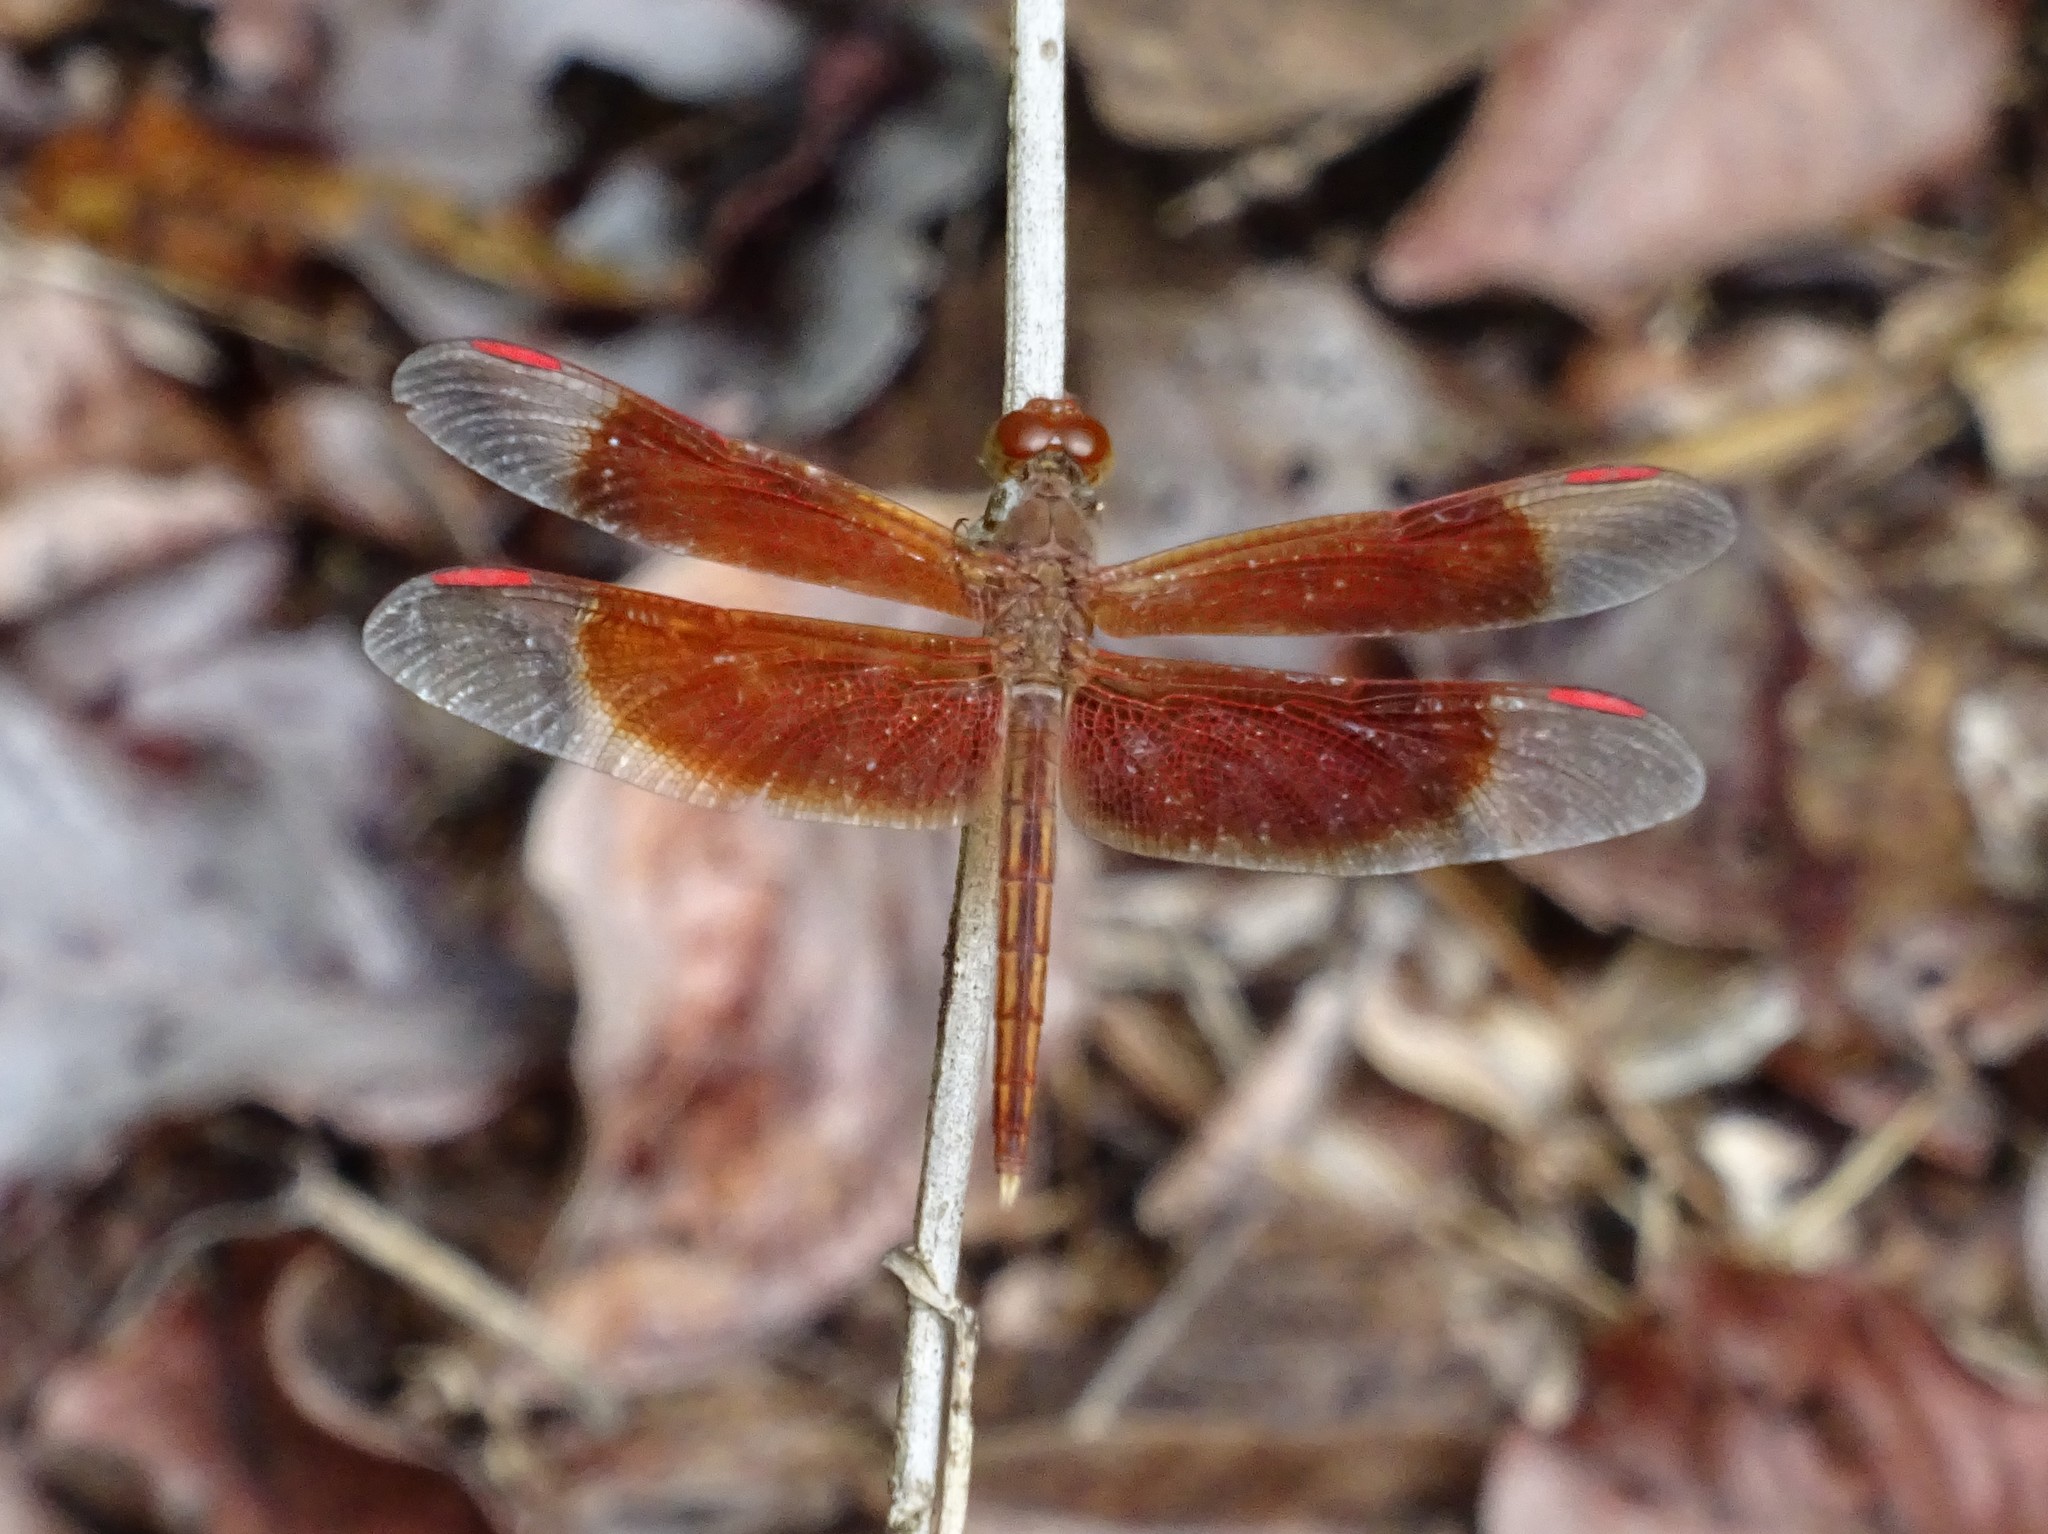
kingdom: Animalia
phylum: Arthropoda
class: Insecta
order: Odonata
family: Libellulidae
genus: Neurothemis
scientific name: Neurothemis stigmatizans
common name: Painted grasshawk
